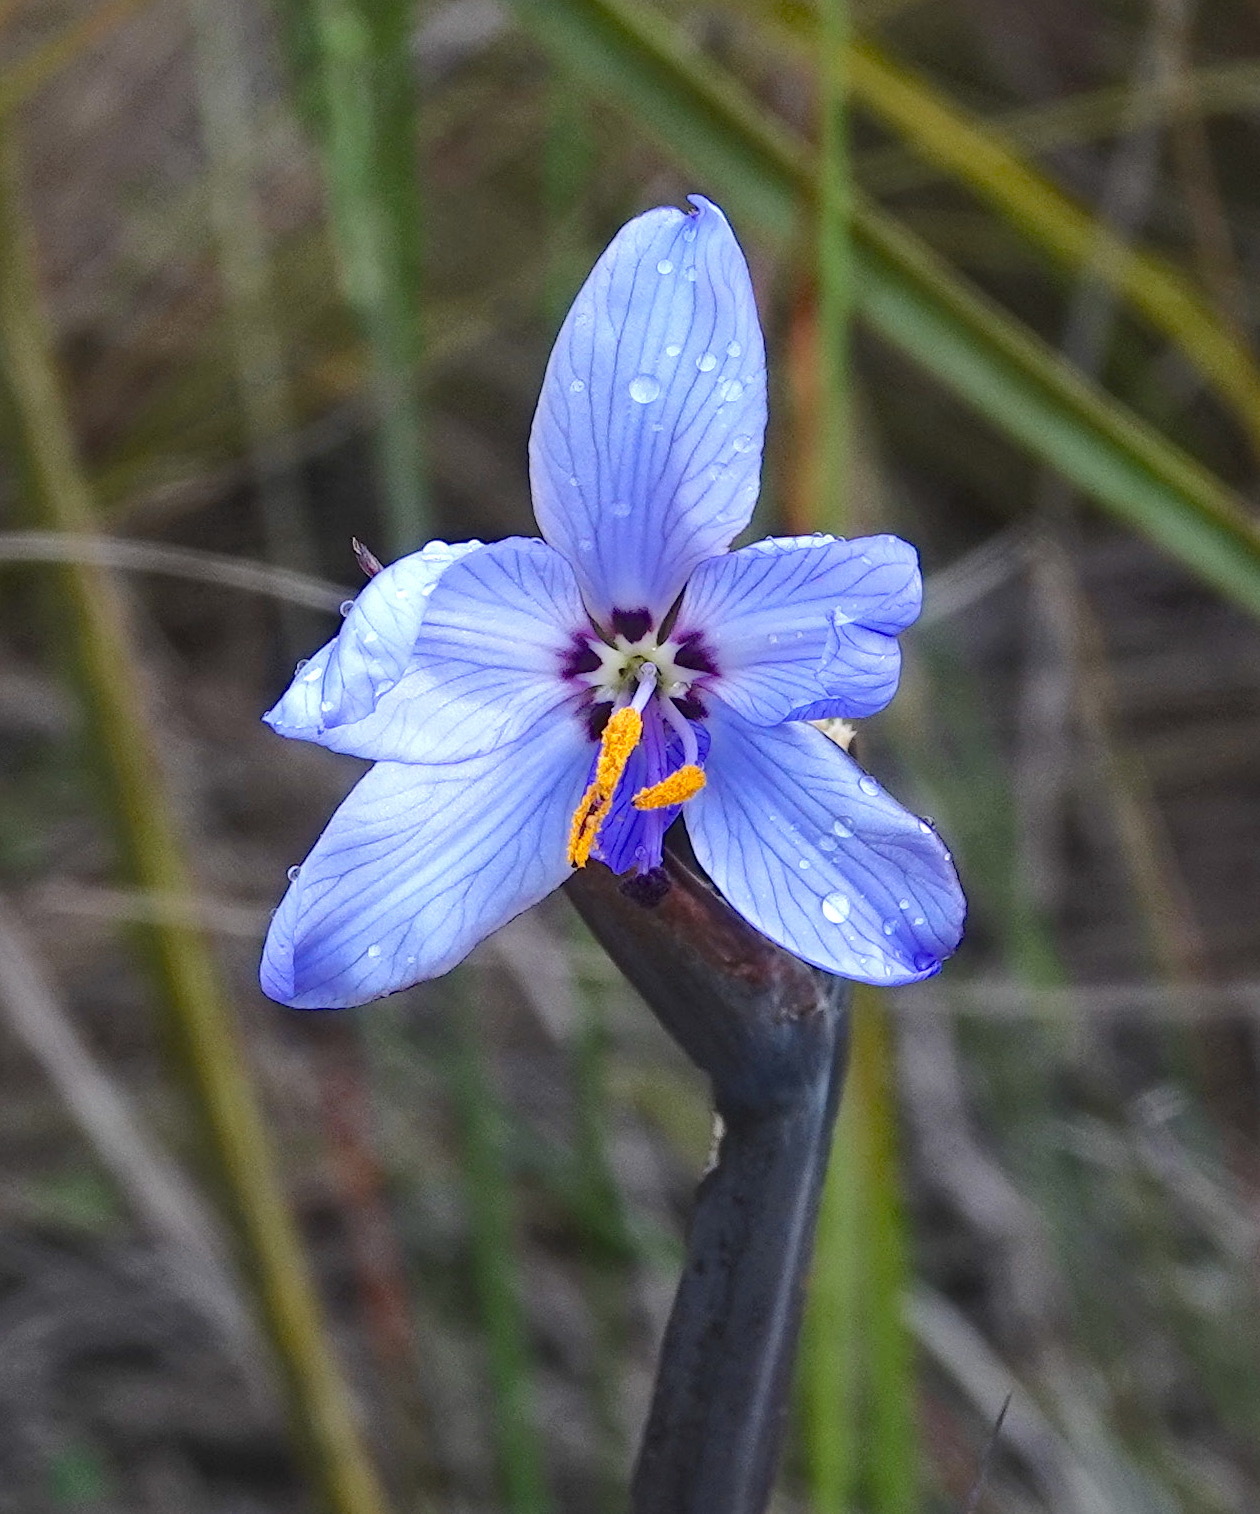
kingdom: Plantae
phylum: Tracheophyta
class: Liliopsida
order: Asparagales
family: Iridaceae
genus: Aristea
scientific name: Aristea spiralis
